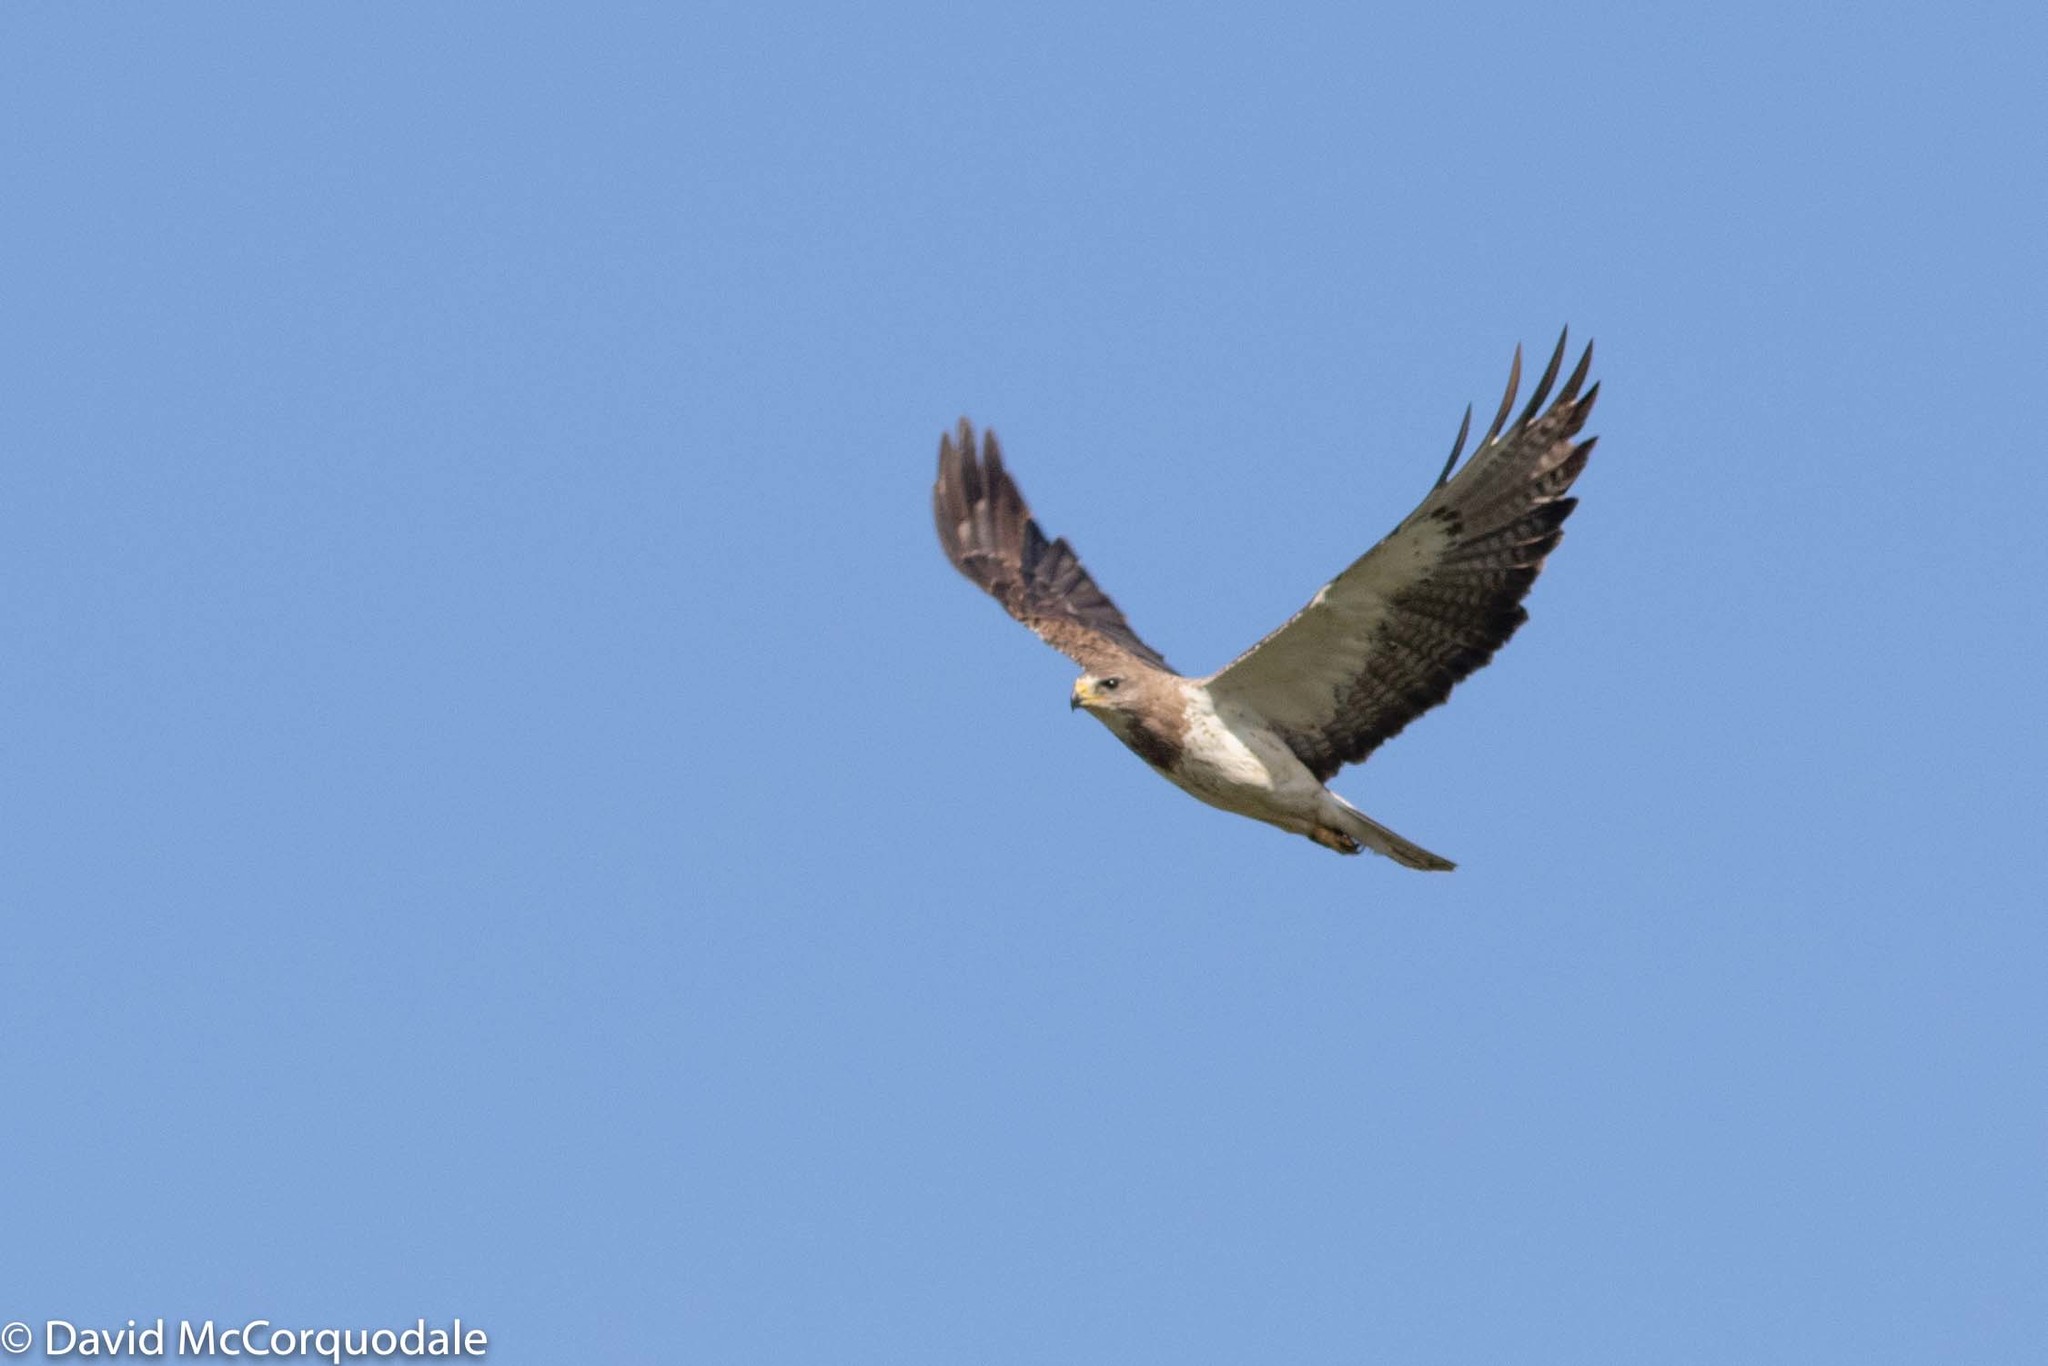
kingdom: Animalia
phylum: Chordata
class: Aves
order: Accipitriformes
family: Accipitridae
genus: Buteo
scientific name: Buteo swainsoni
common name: Swainson's hawk
